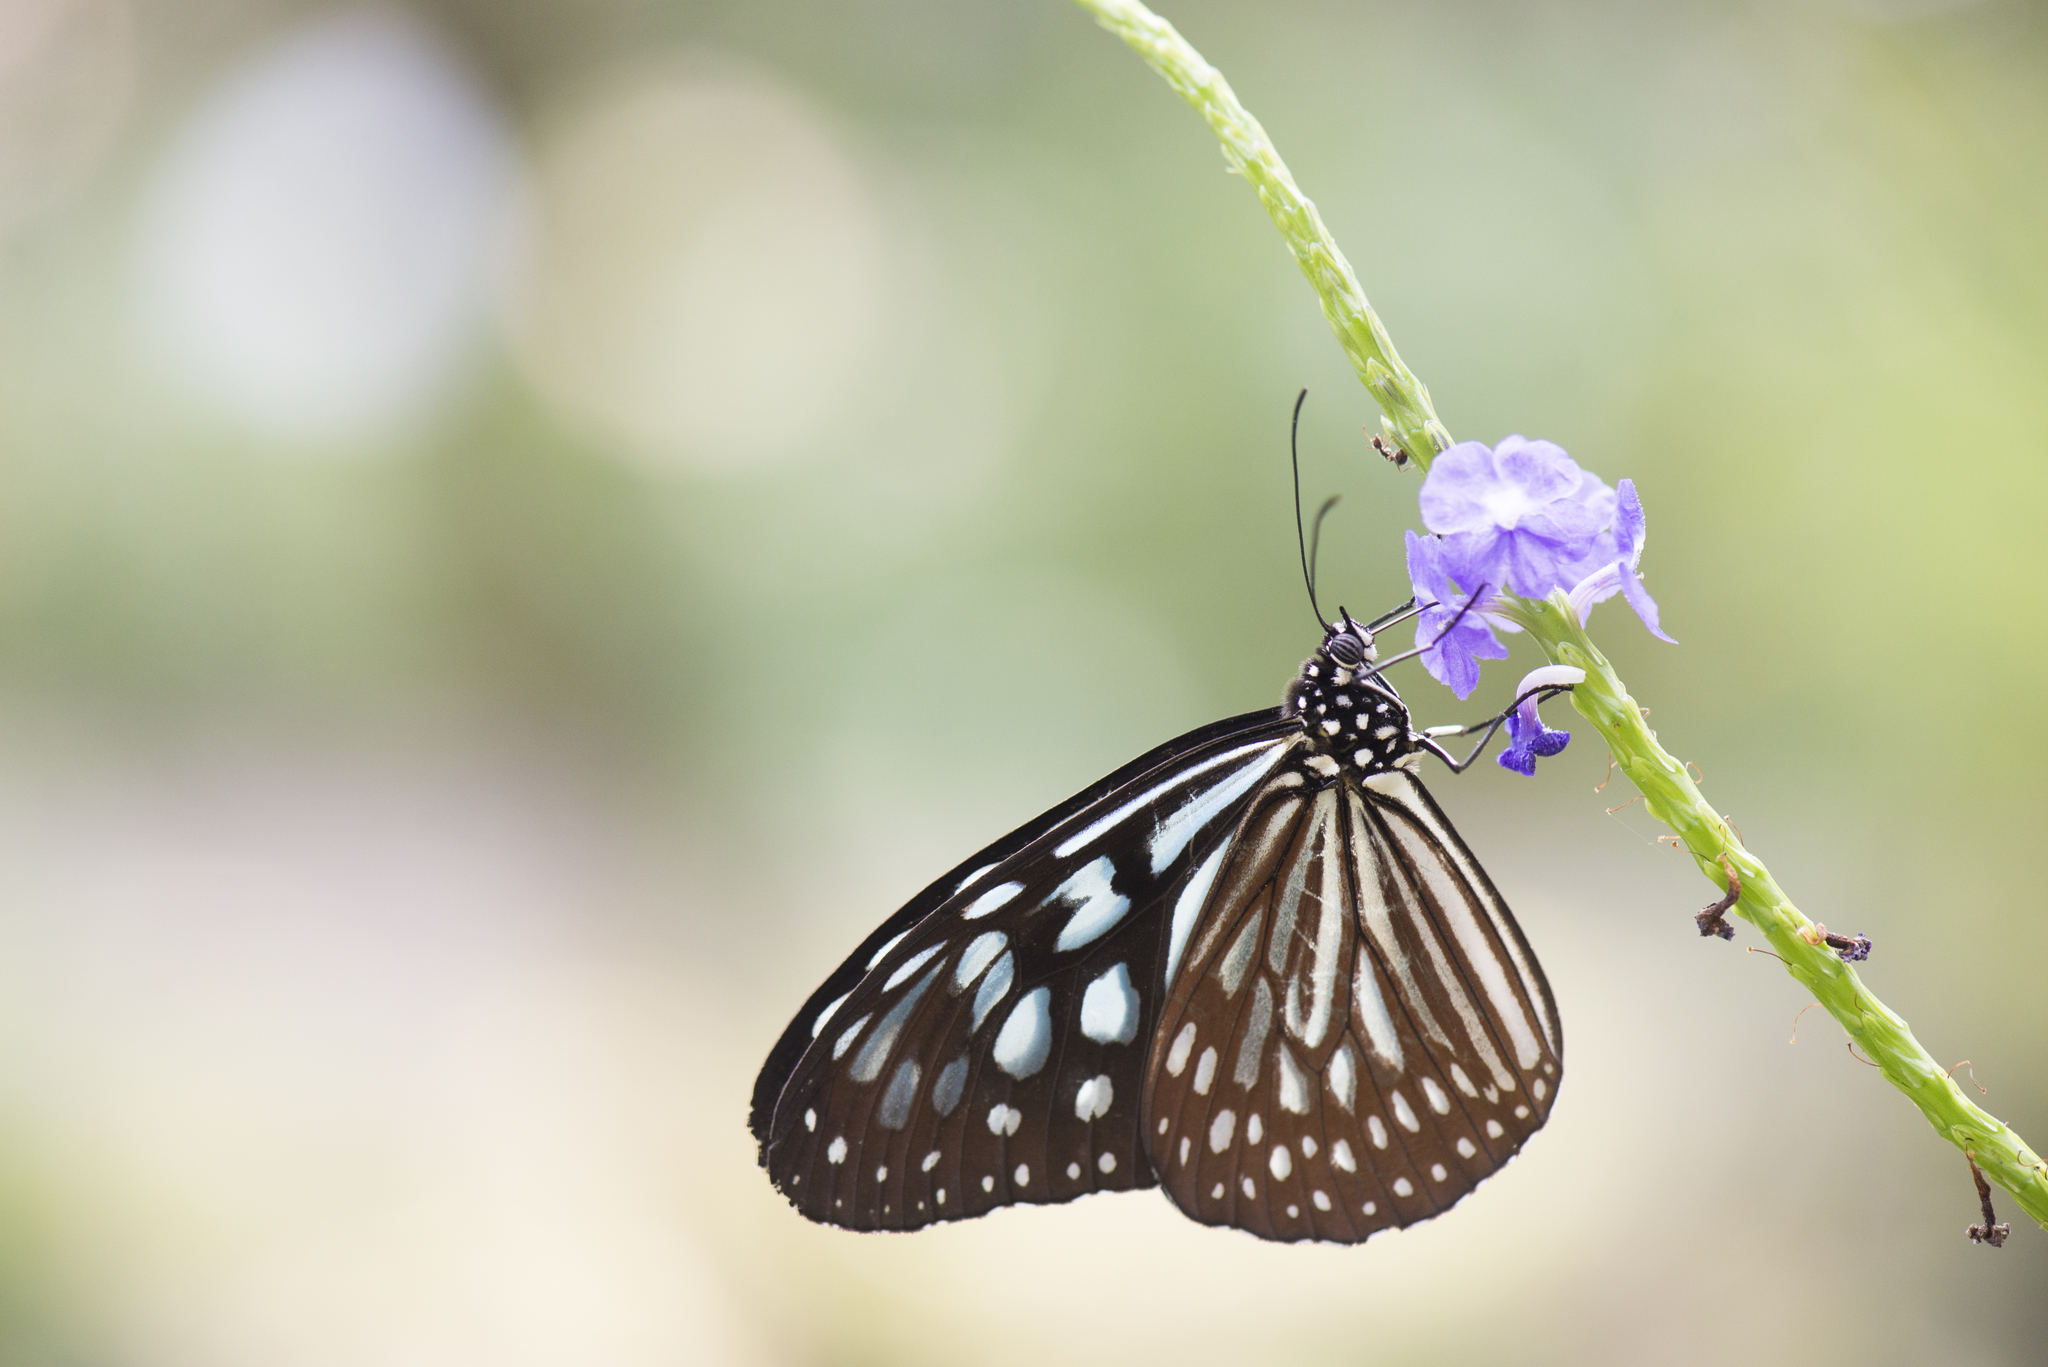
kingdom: Animalia
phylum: Arthropoda
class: Insecta
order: Lepidoptera
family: Nymphalidae
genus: Ideopsis
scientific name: Ideopsis similis
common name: Ceylon blue glassy tiger
